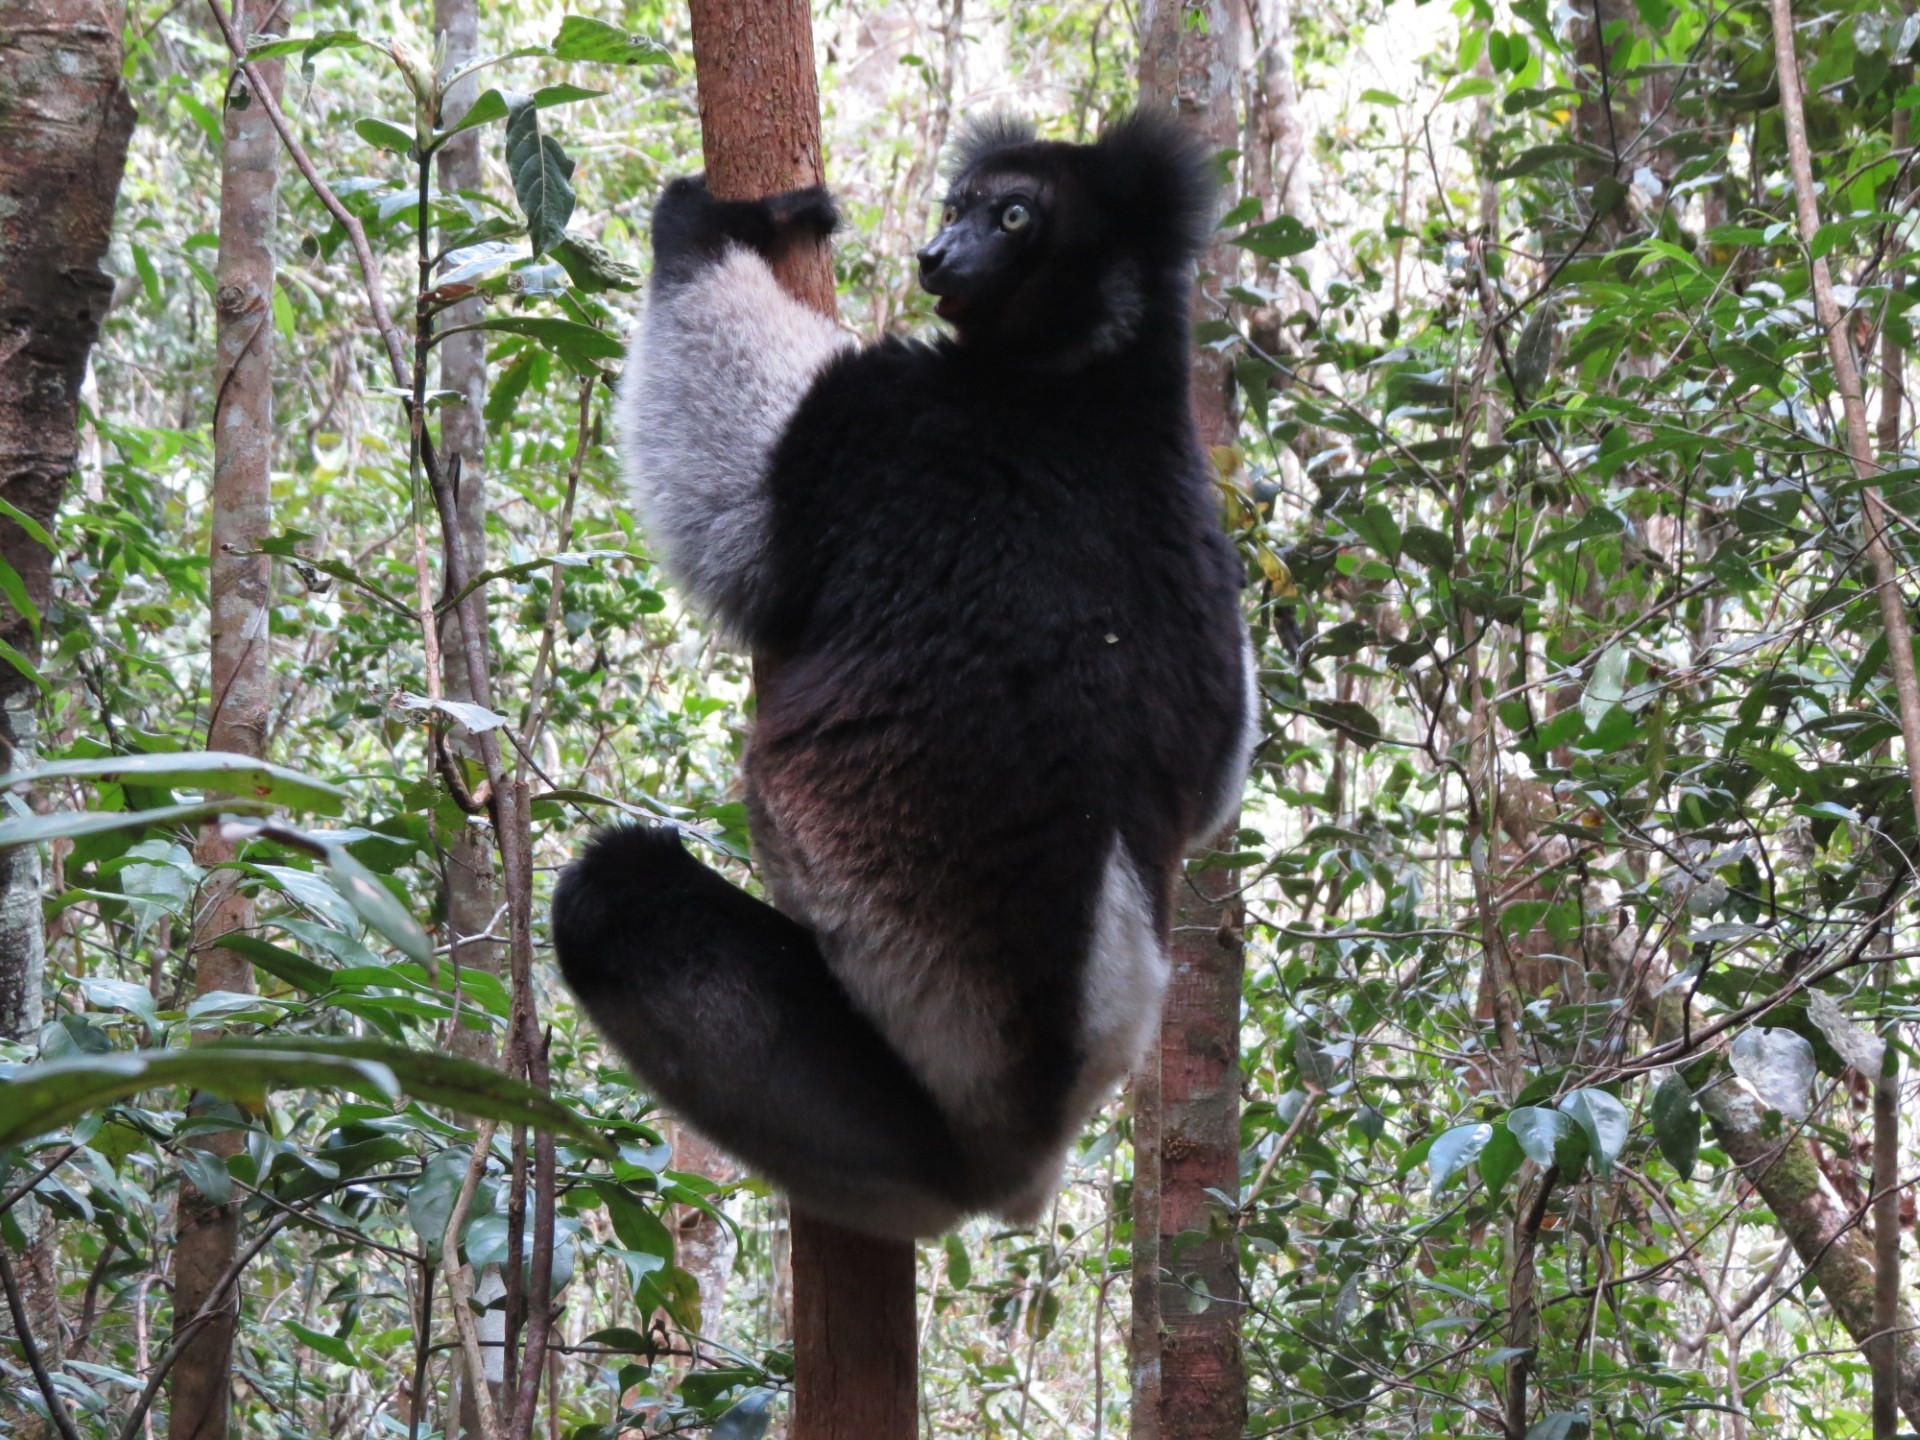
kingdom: Animalia
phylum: Chordata
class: Mammalia
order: Primates
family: Indriidae
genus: Indri
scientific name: Indri indri
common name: Indri
